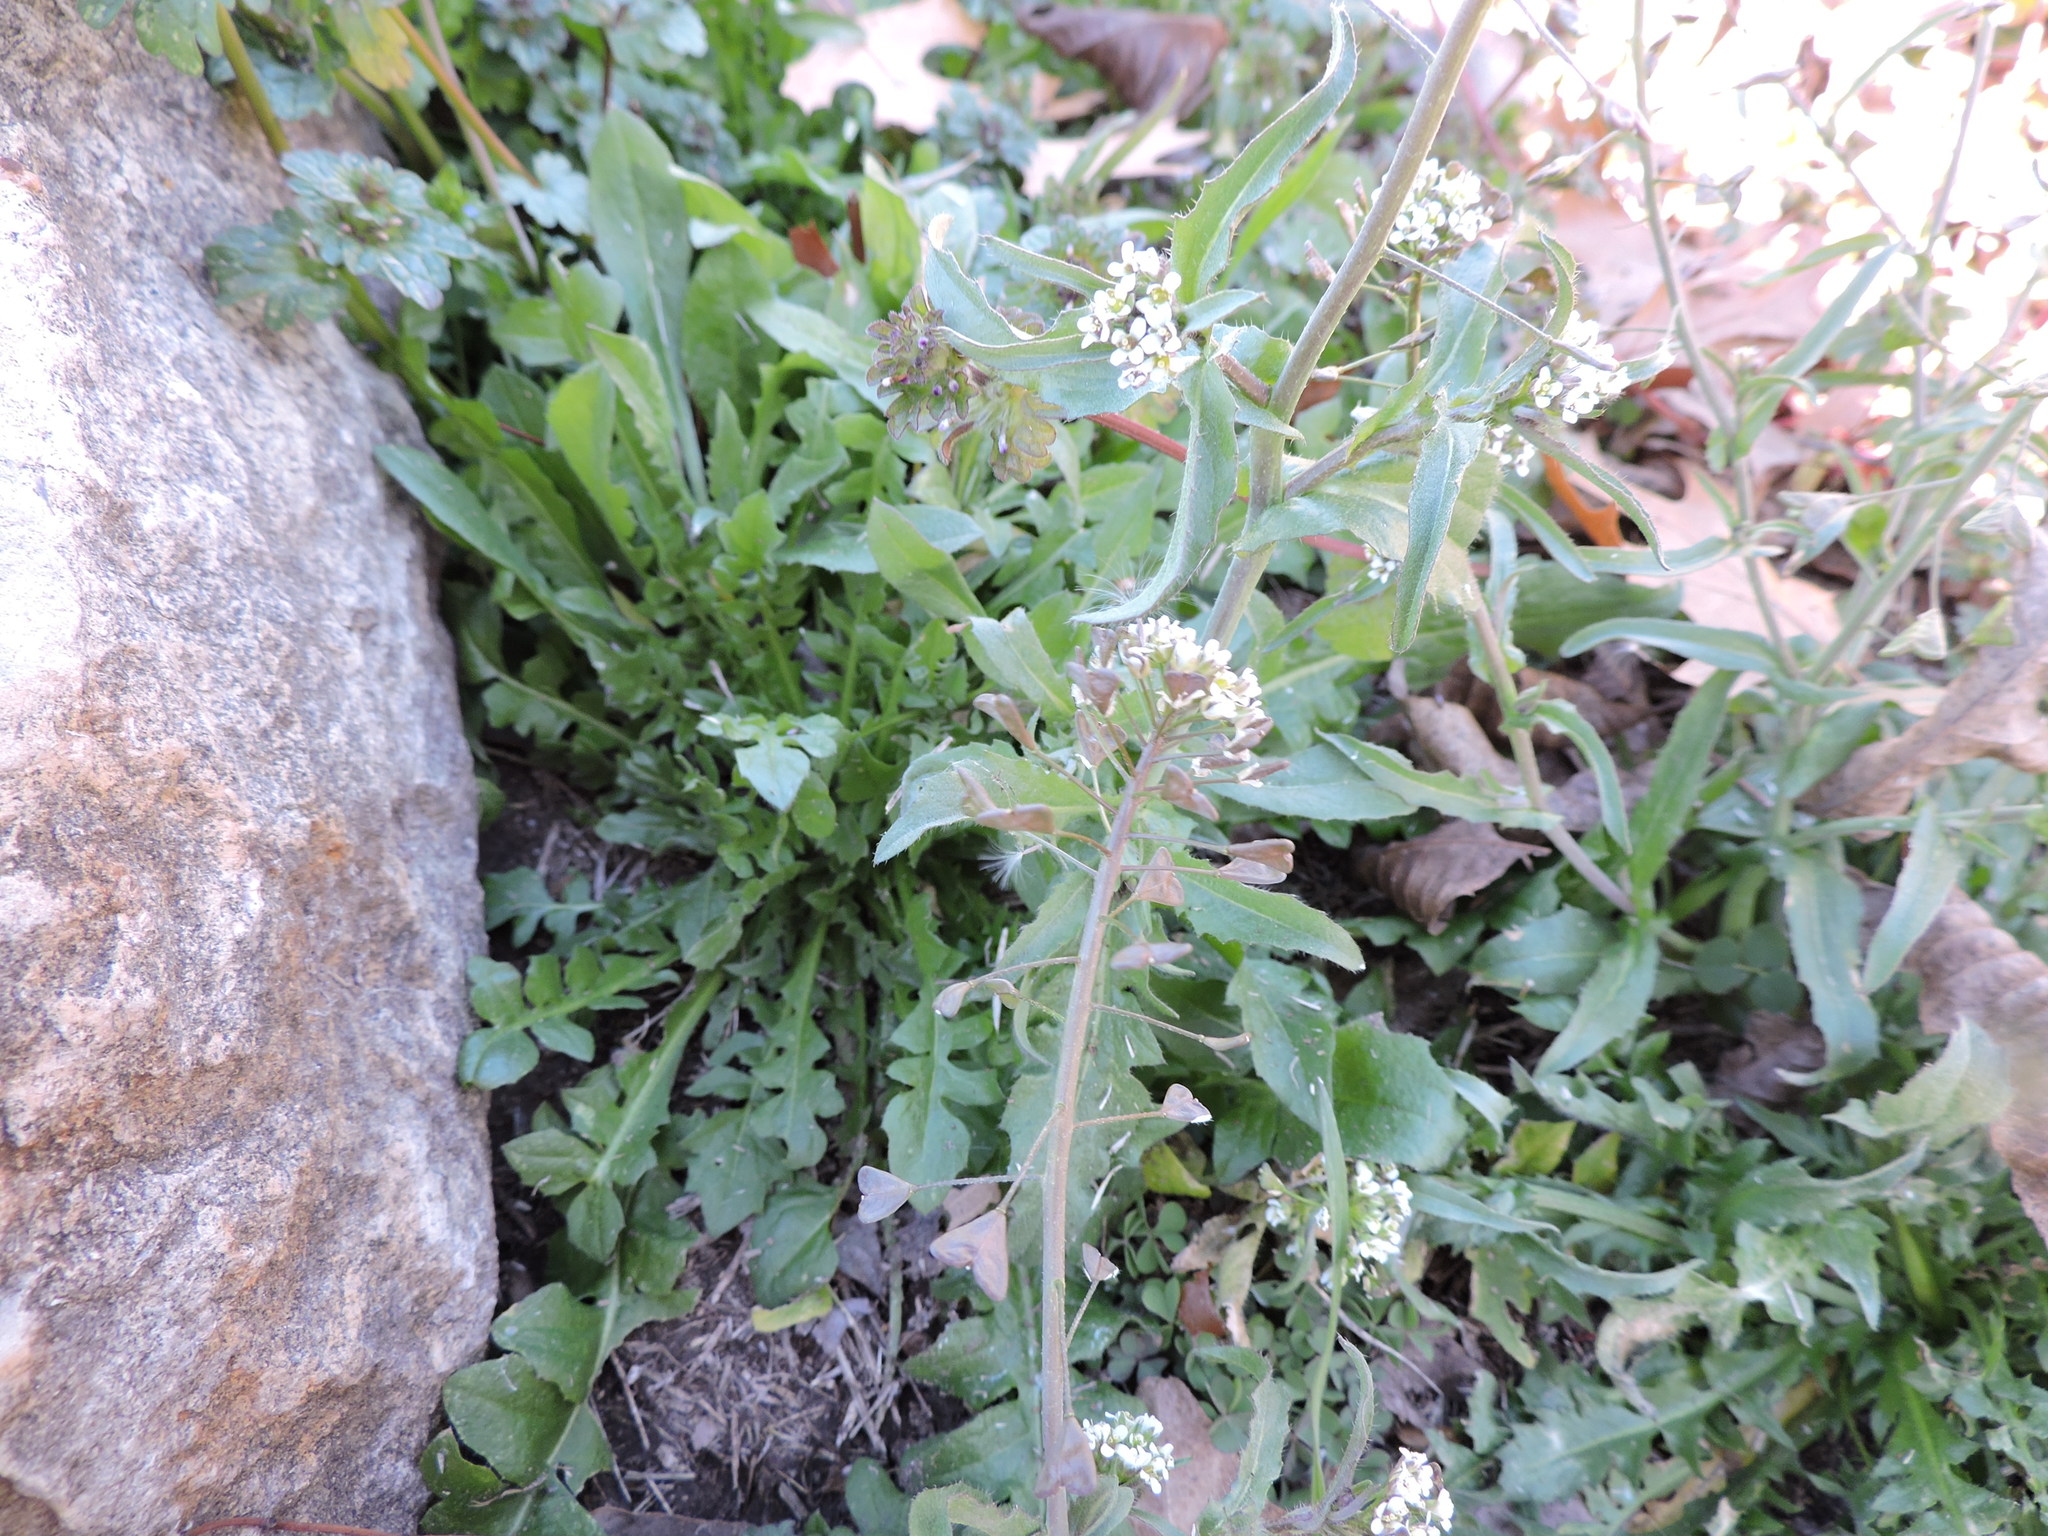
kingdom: Plantae
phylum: Tracheophyta
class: Magnoliopsida
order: Brassicales
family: Brassicaceae
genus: Capsella
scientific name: Capsella bursa-pastoris
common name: Shepherd's purse
